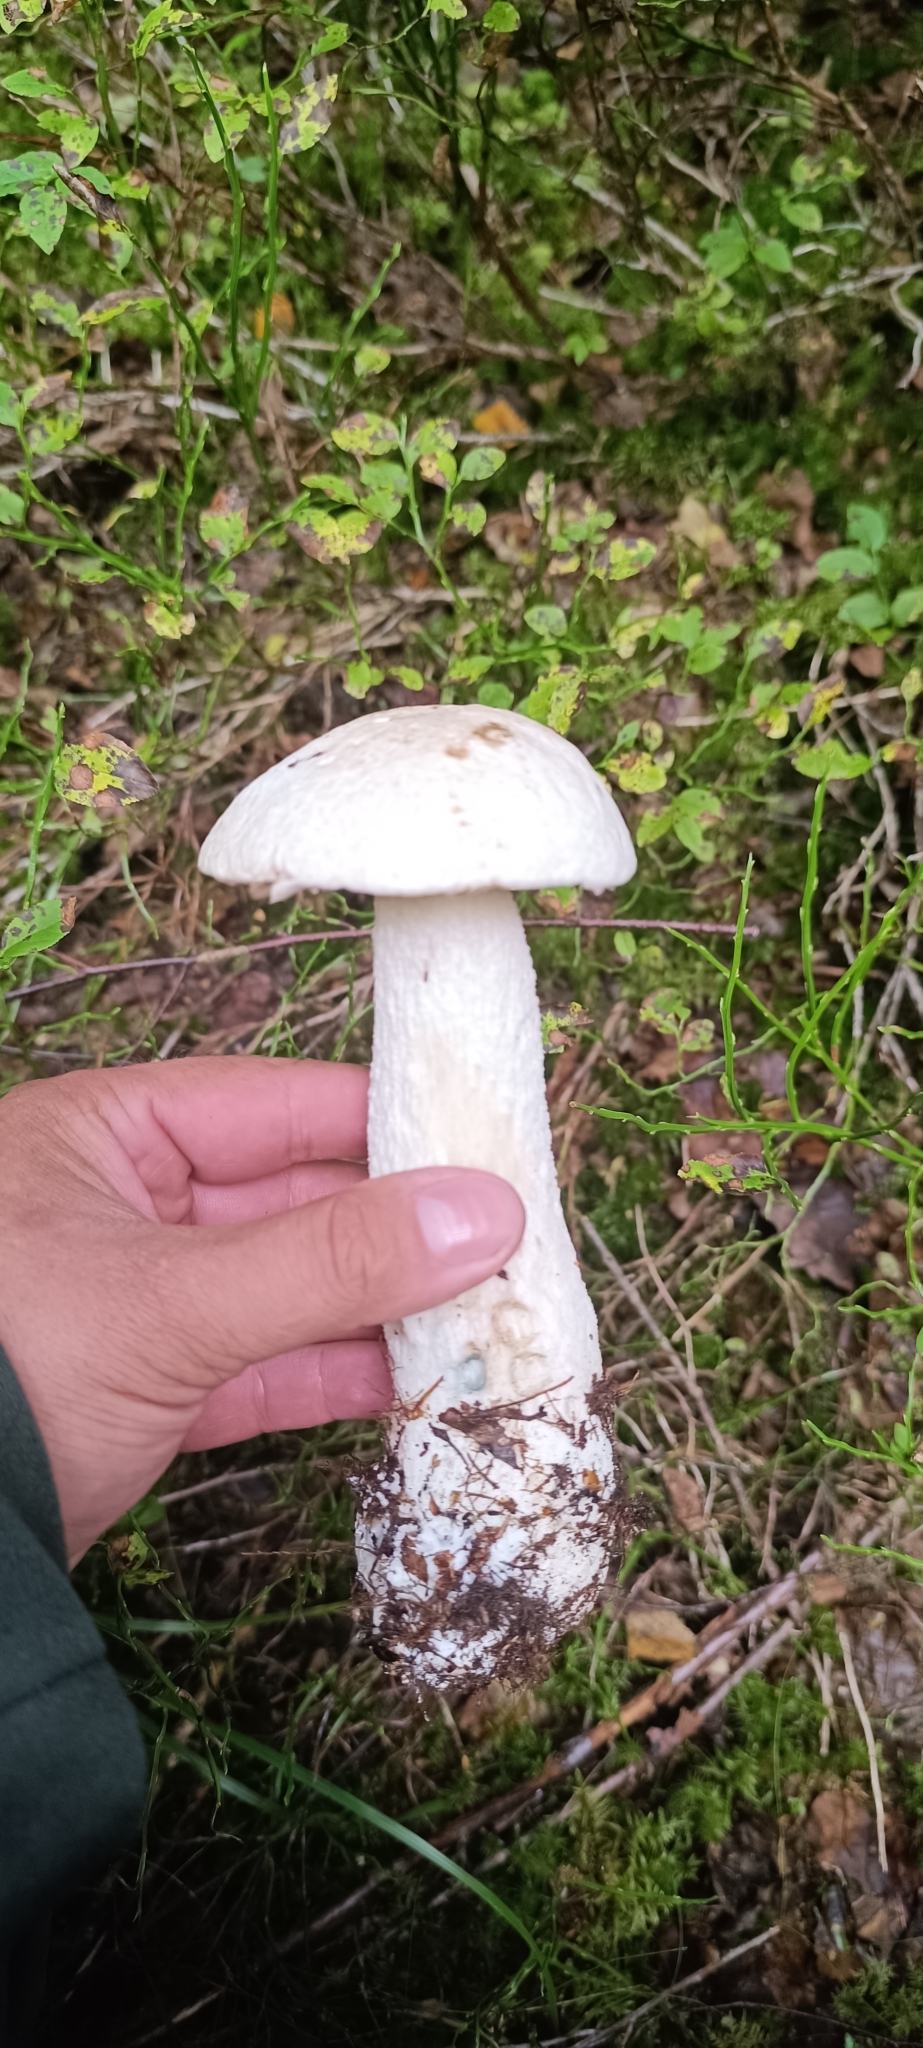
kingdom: Fungi
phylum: Basidiomycota
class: Agaricomycetes
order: Boletales
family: Boletaceae
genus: Leccinum
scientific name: Leccinum versipelle
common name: Orange birch bolete
